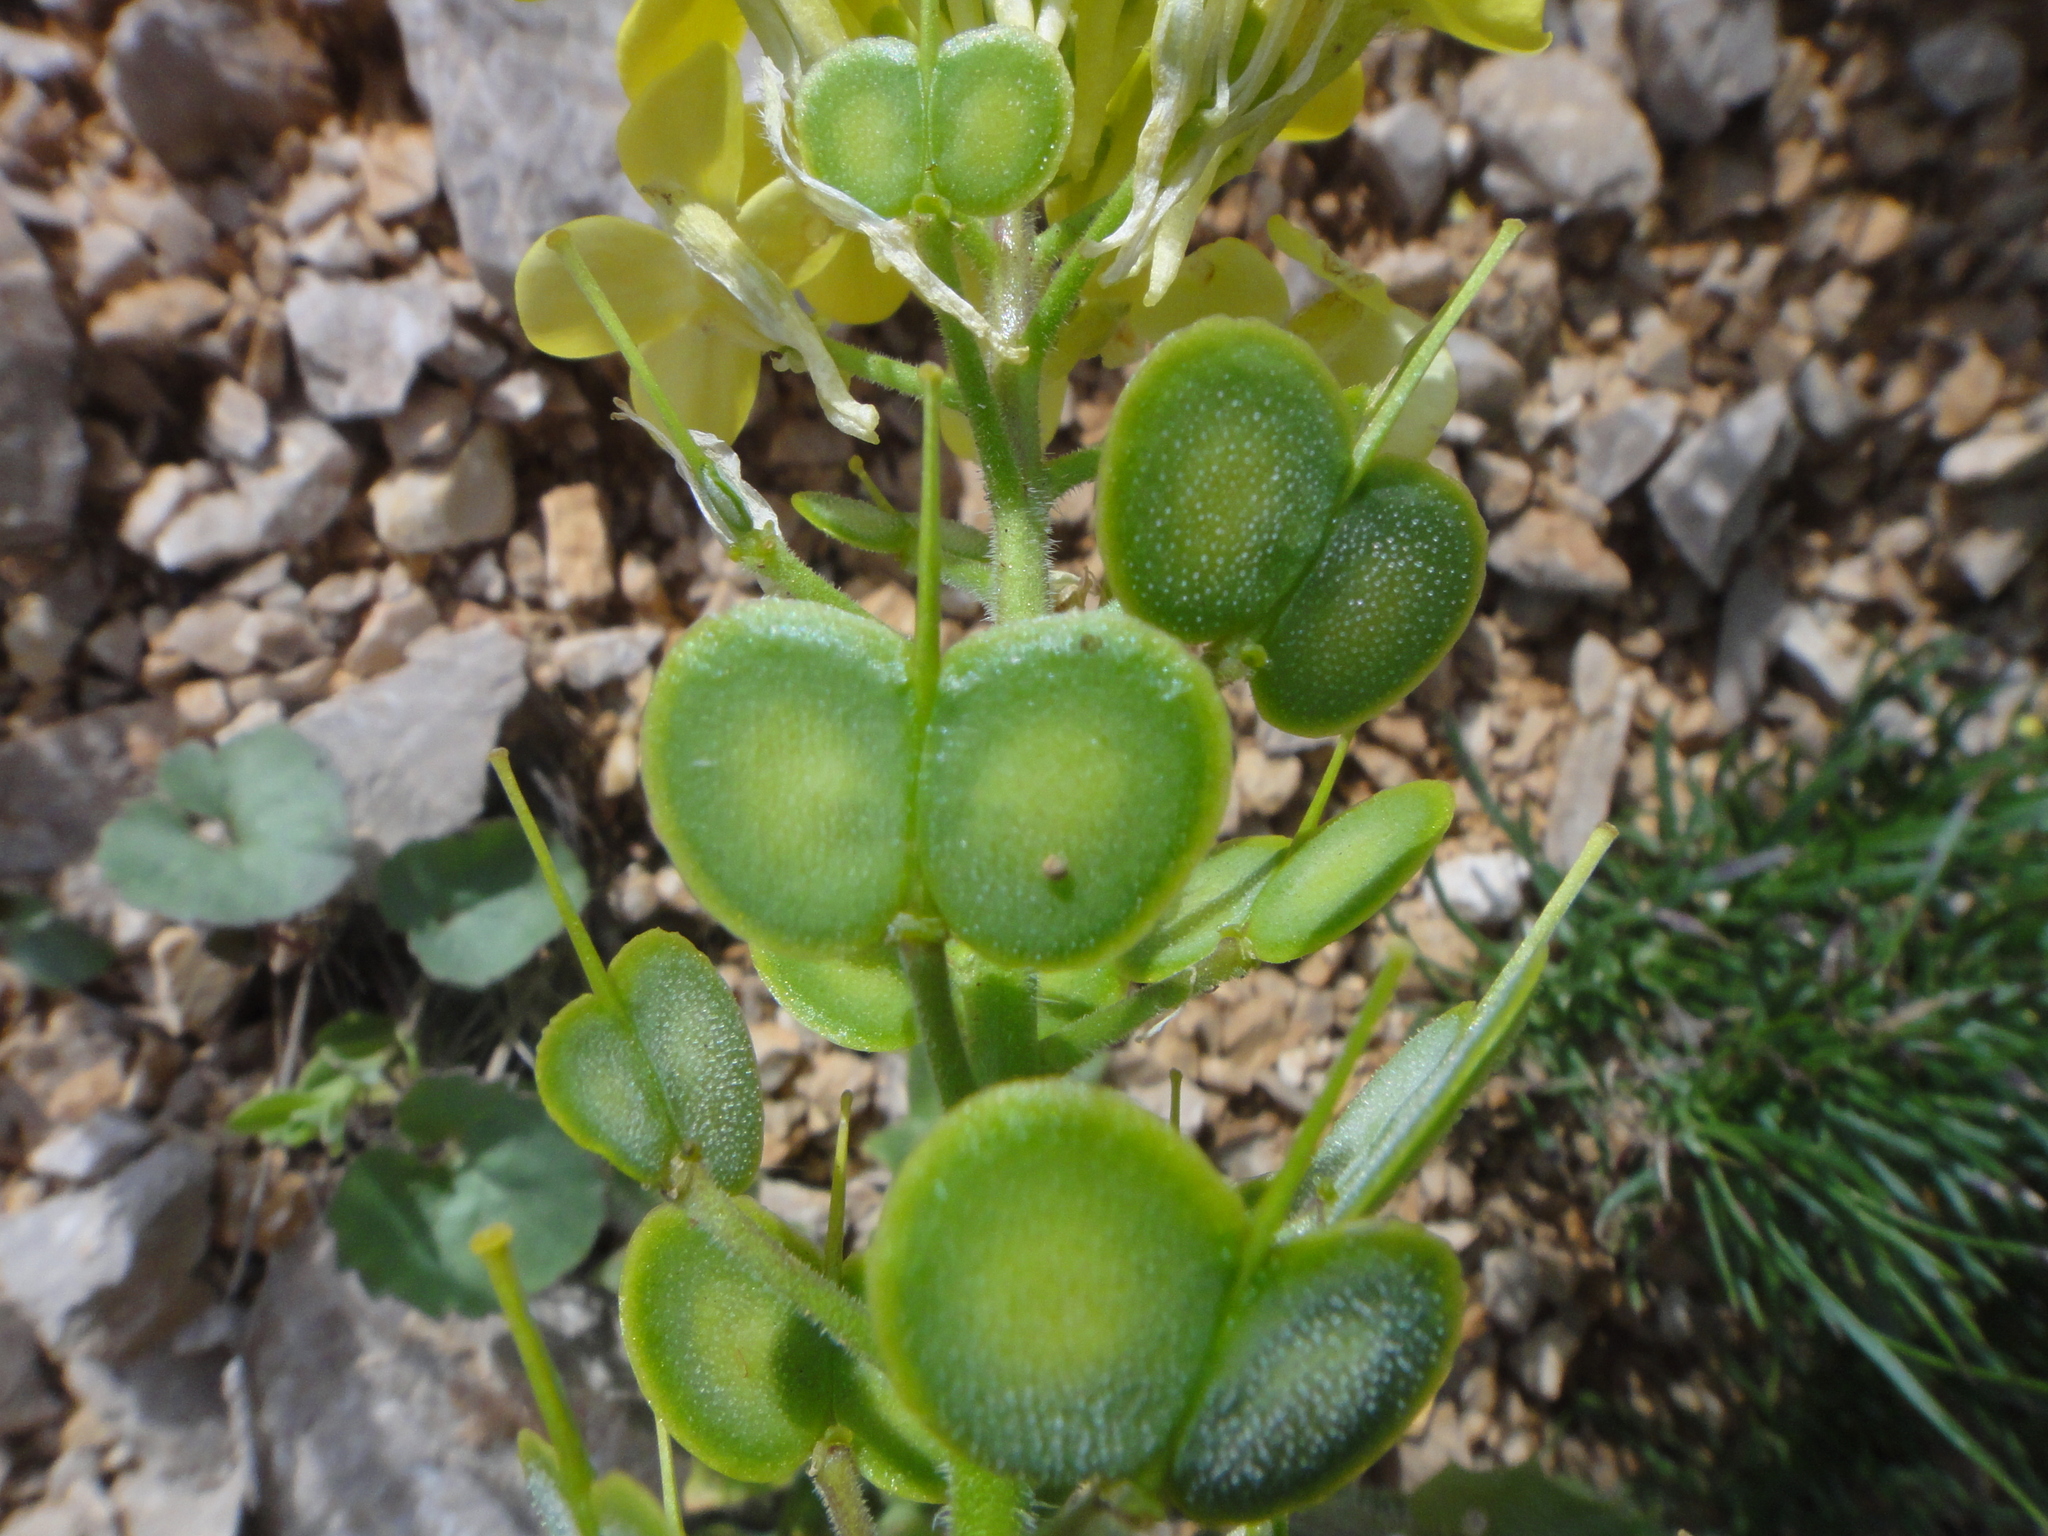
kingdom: Plantae
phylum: Tracheophyta
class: Magnoliopsida
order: Brassicales
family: Brassicaceae
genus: Biscutella
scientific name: Biscutella cichoriifolia
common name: Chicory-leaf buckler mustard
